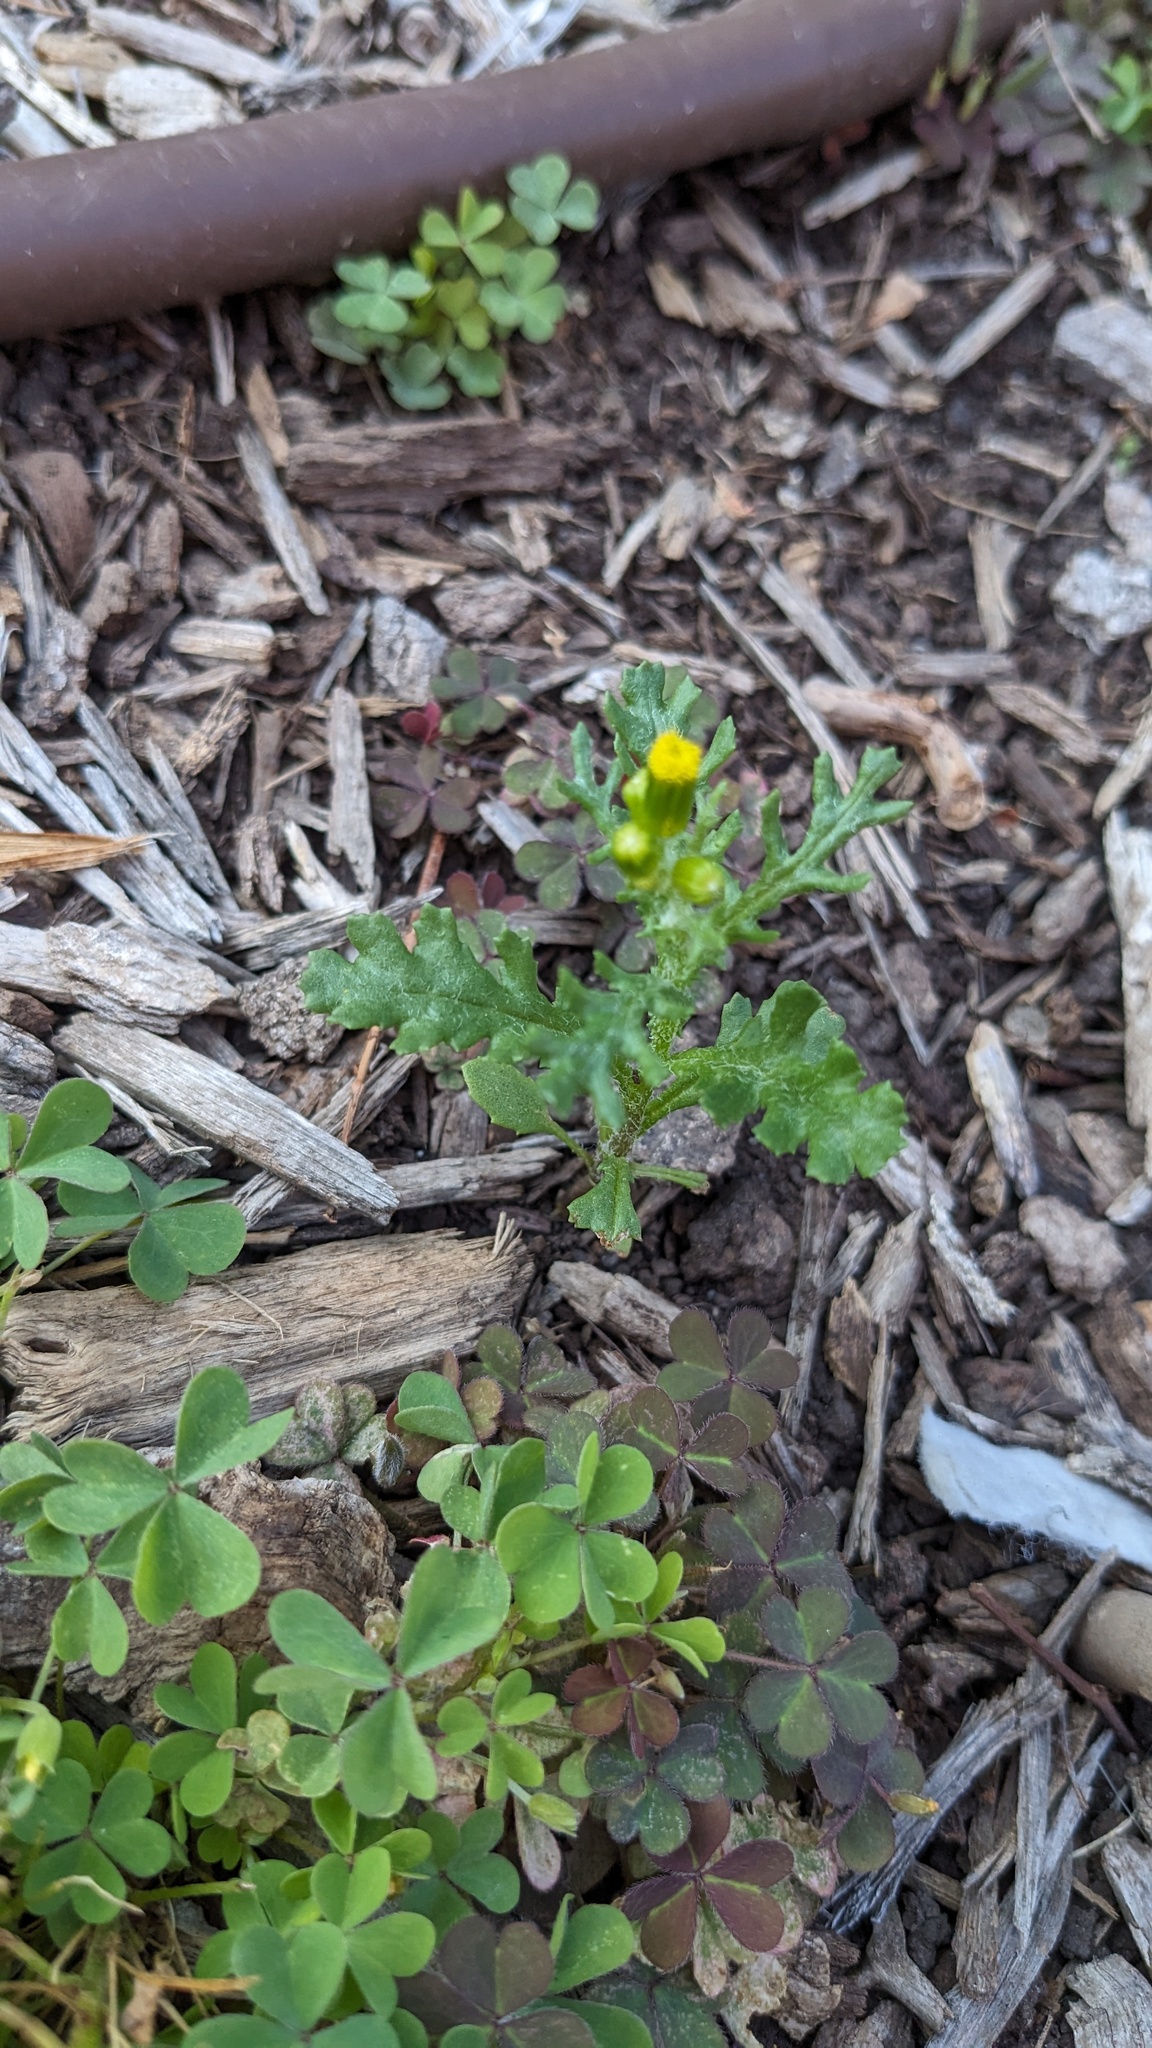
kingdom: Plantae
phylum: Tracheophyta
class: Magnoliopsida
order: Asterales
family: Asteraceae
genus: Senecio
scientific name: Senecio vulgaris
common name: Old-man-in-the-spring
